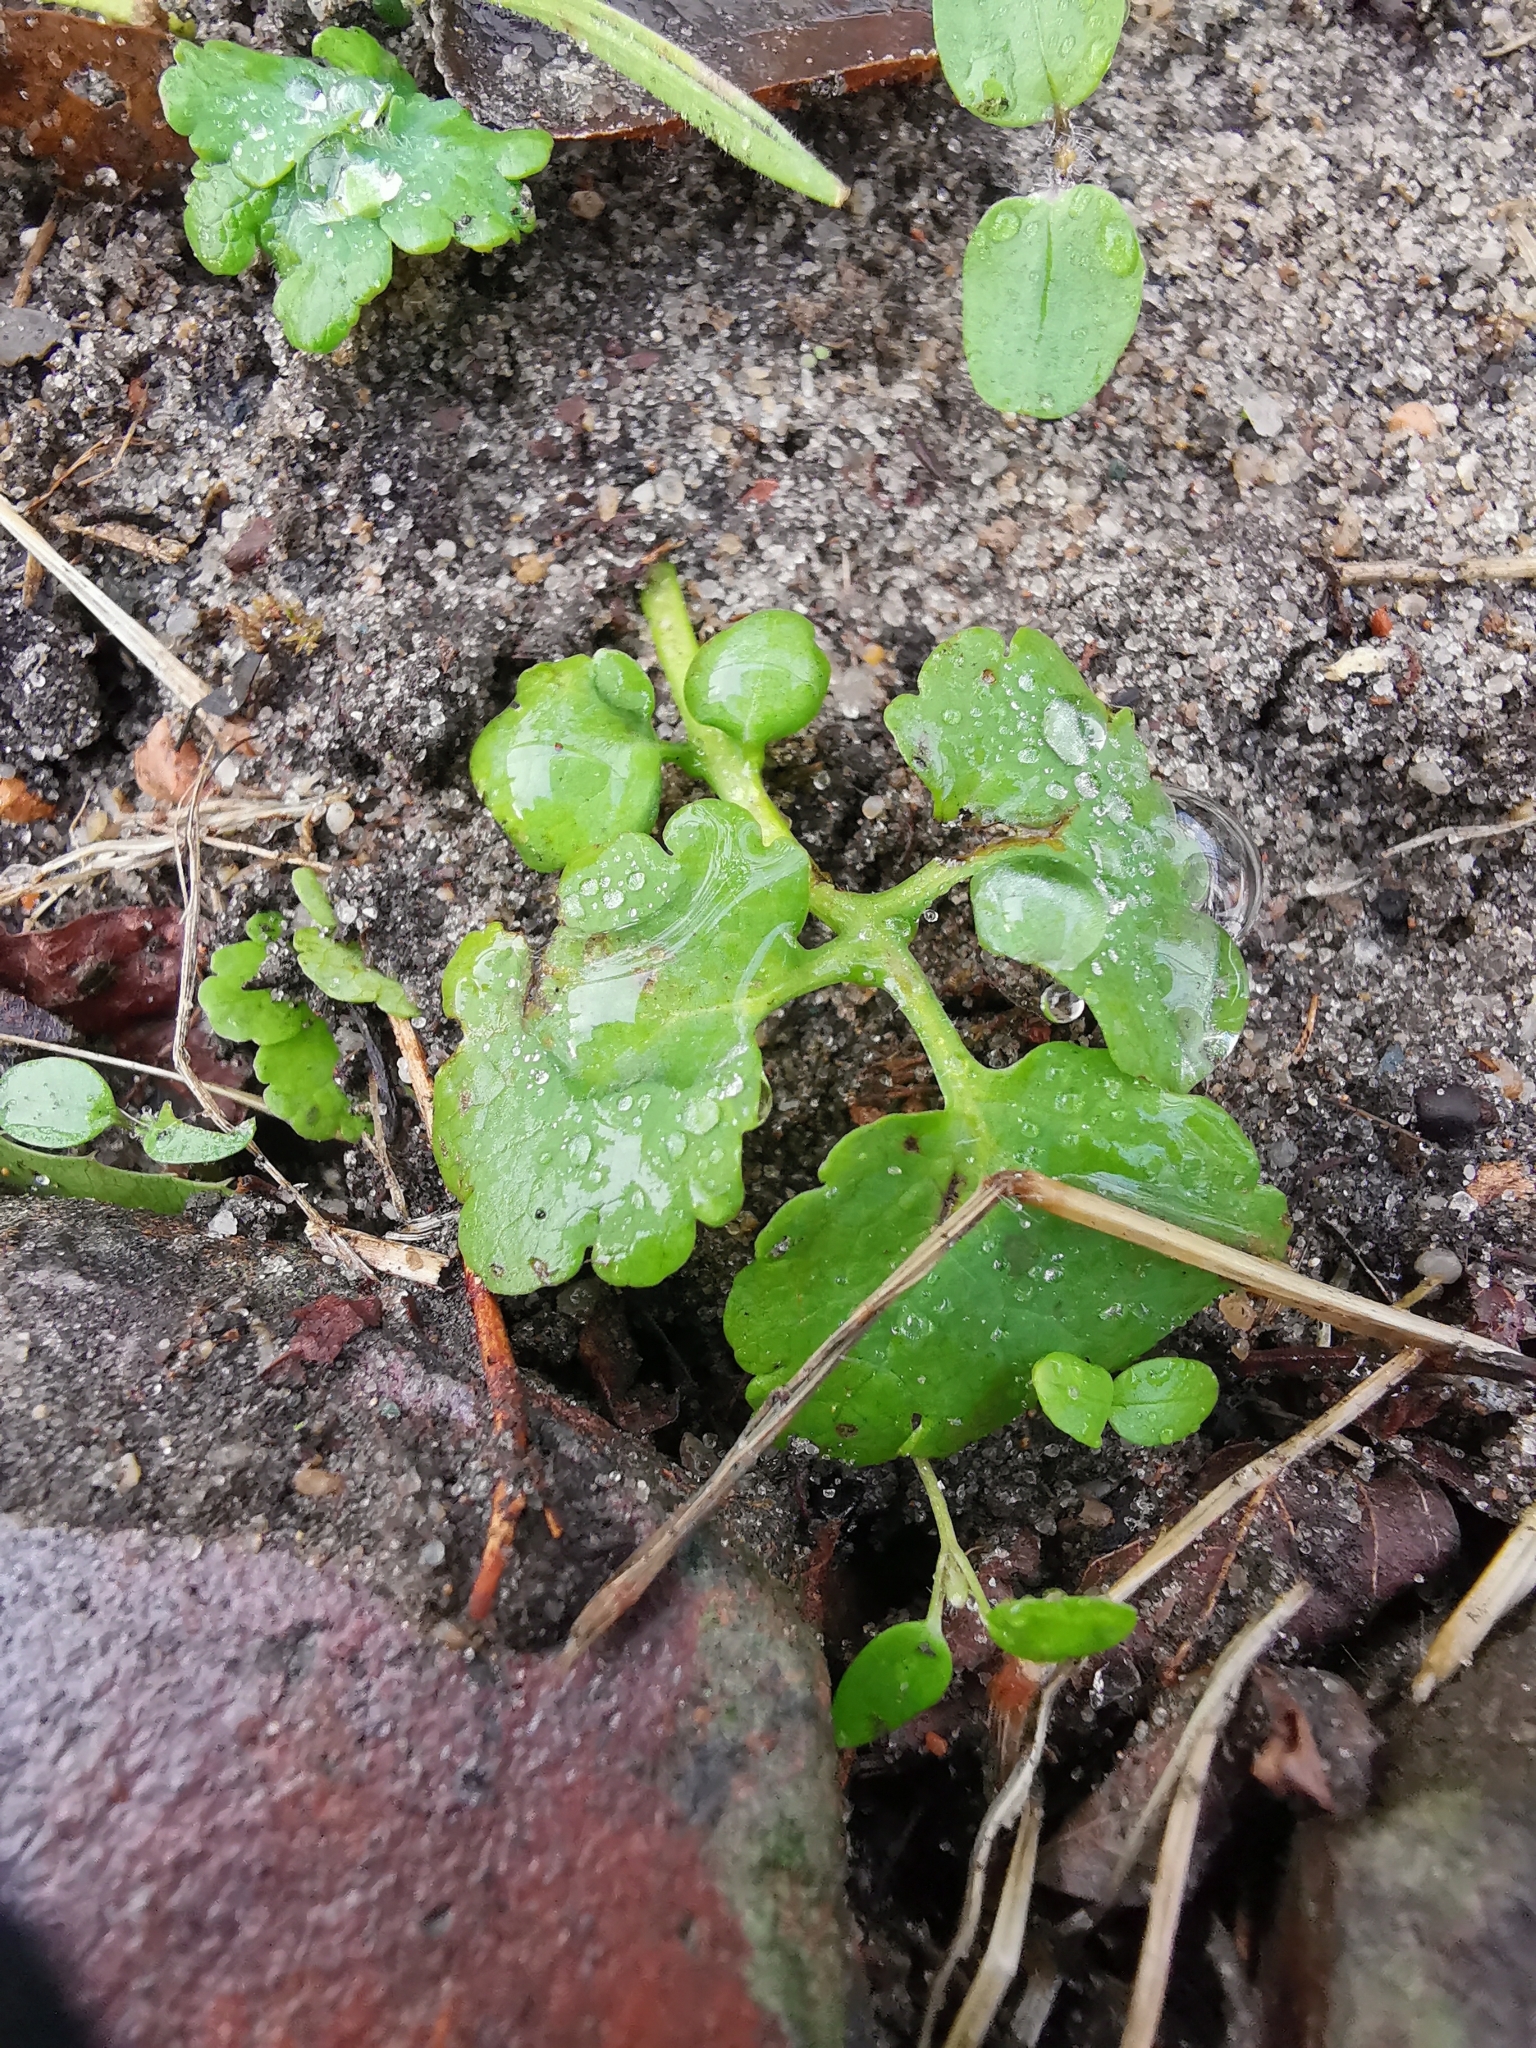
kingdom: Plantae
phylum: Tracheophyta
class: Magnoliopsida
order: Ranunculales
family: Papaveraceae
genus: Chelidonium
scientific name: Chelidonium majus
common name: Greater celandine
